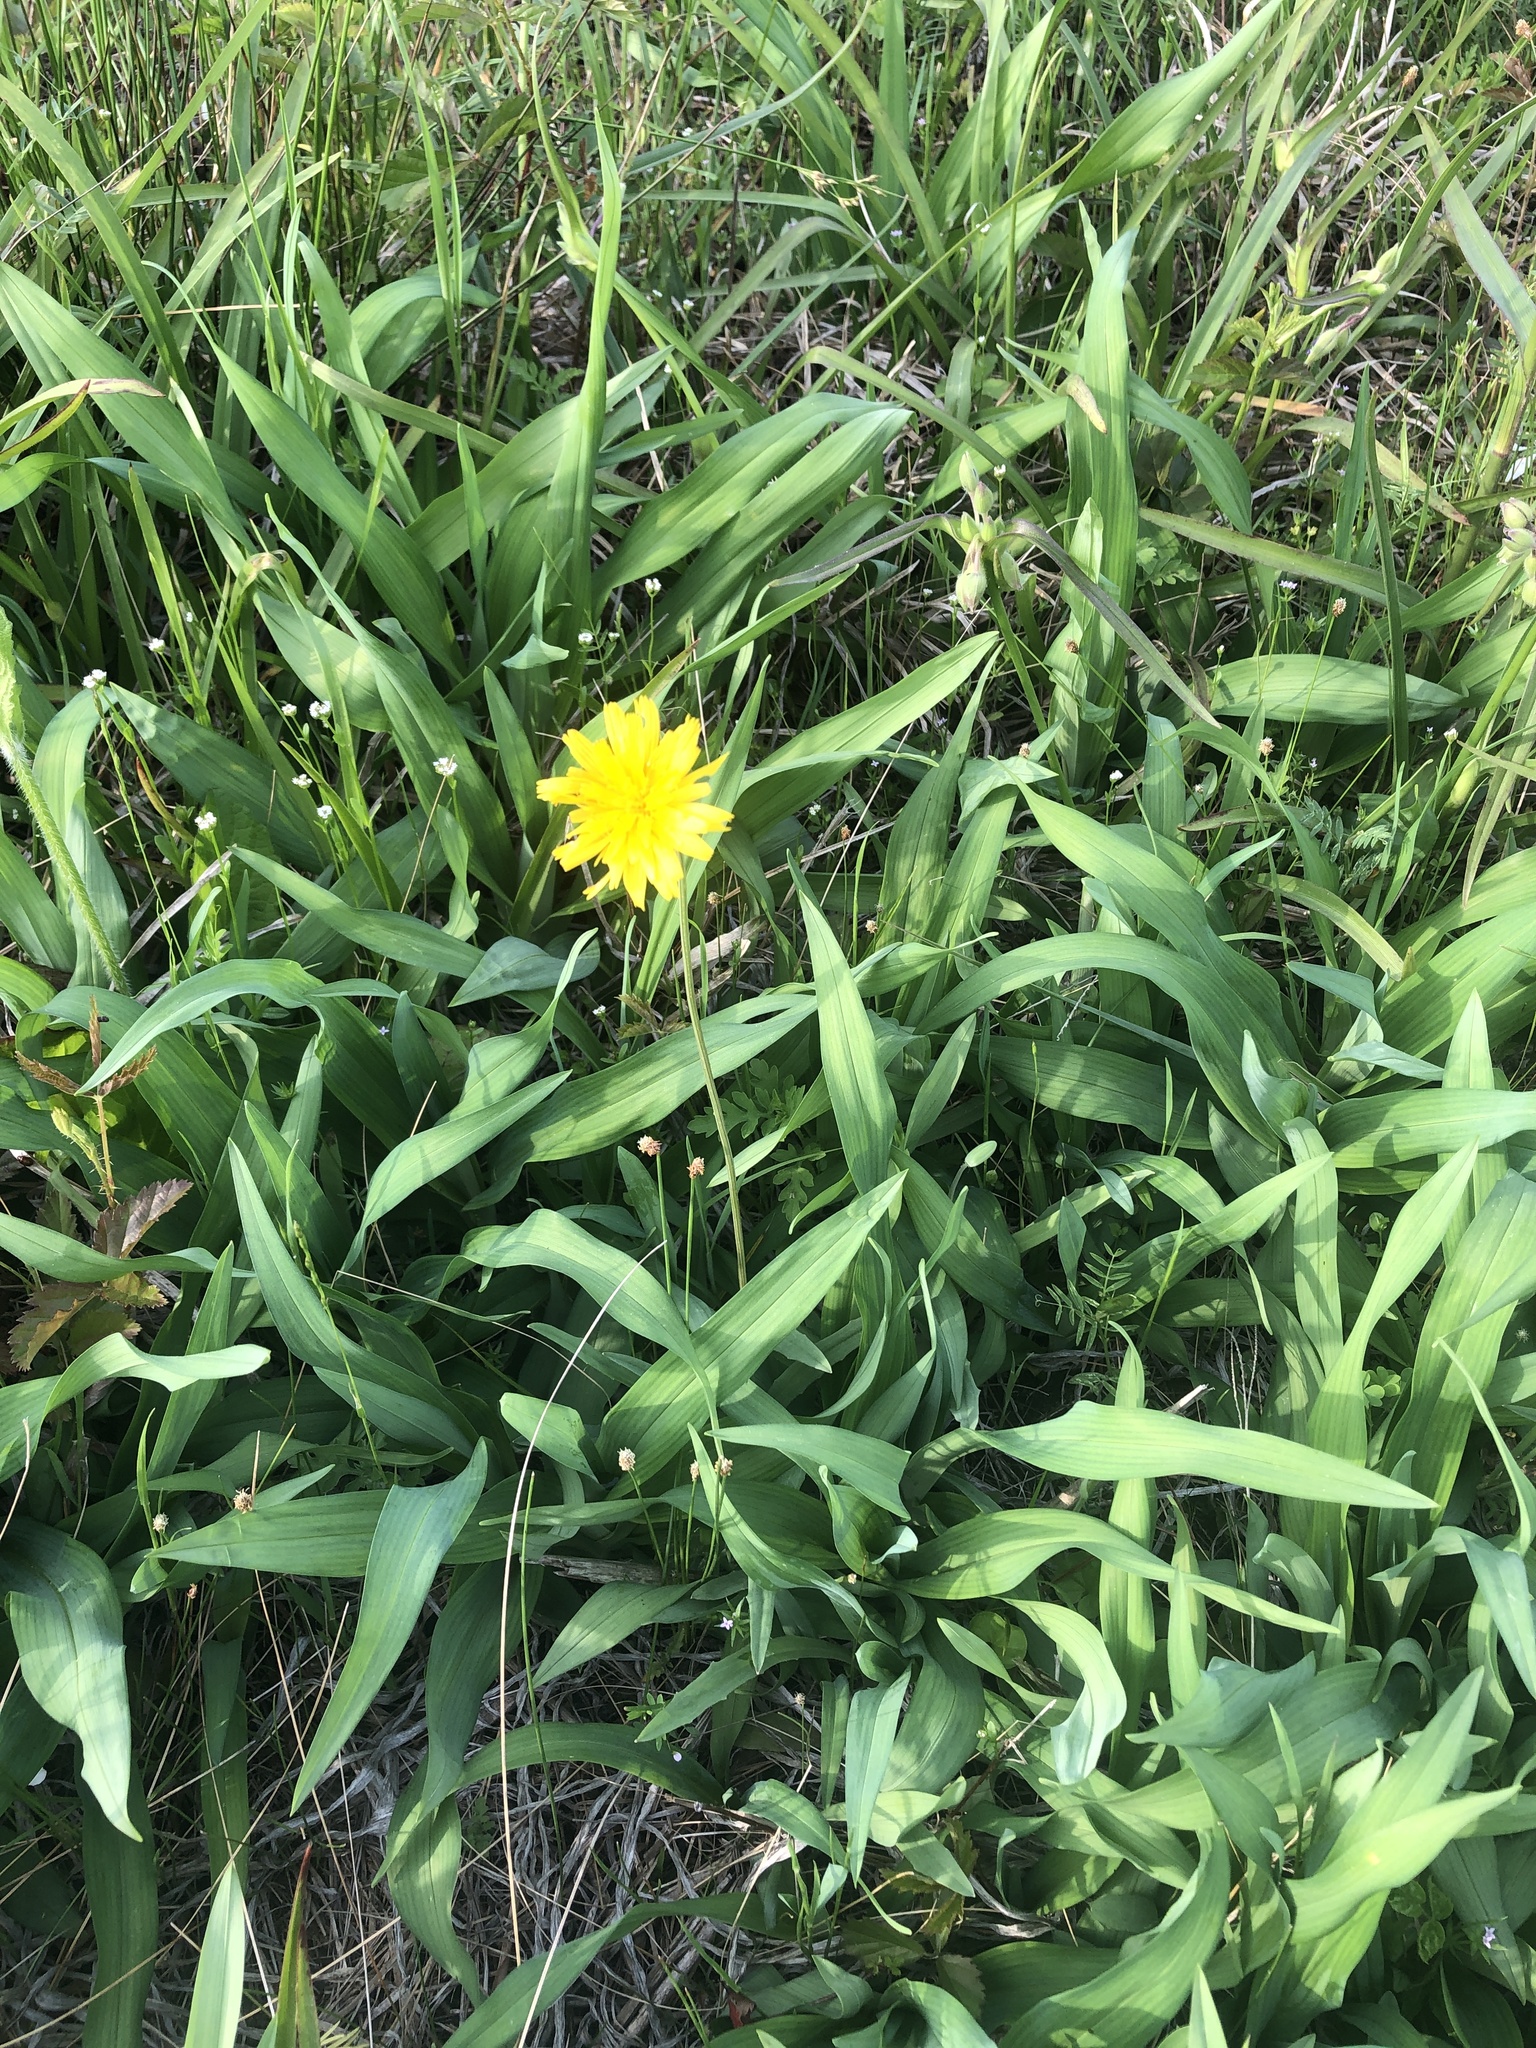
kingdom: Plantae
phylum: Tracheophyta
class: Magnoliopsida
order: Asterales
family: Asteraceae
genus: Krigia
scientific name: Krigia dandelion
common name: Colonial dwarf-dandelion
